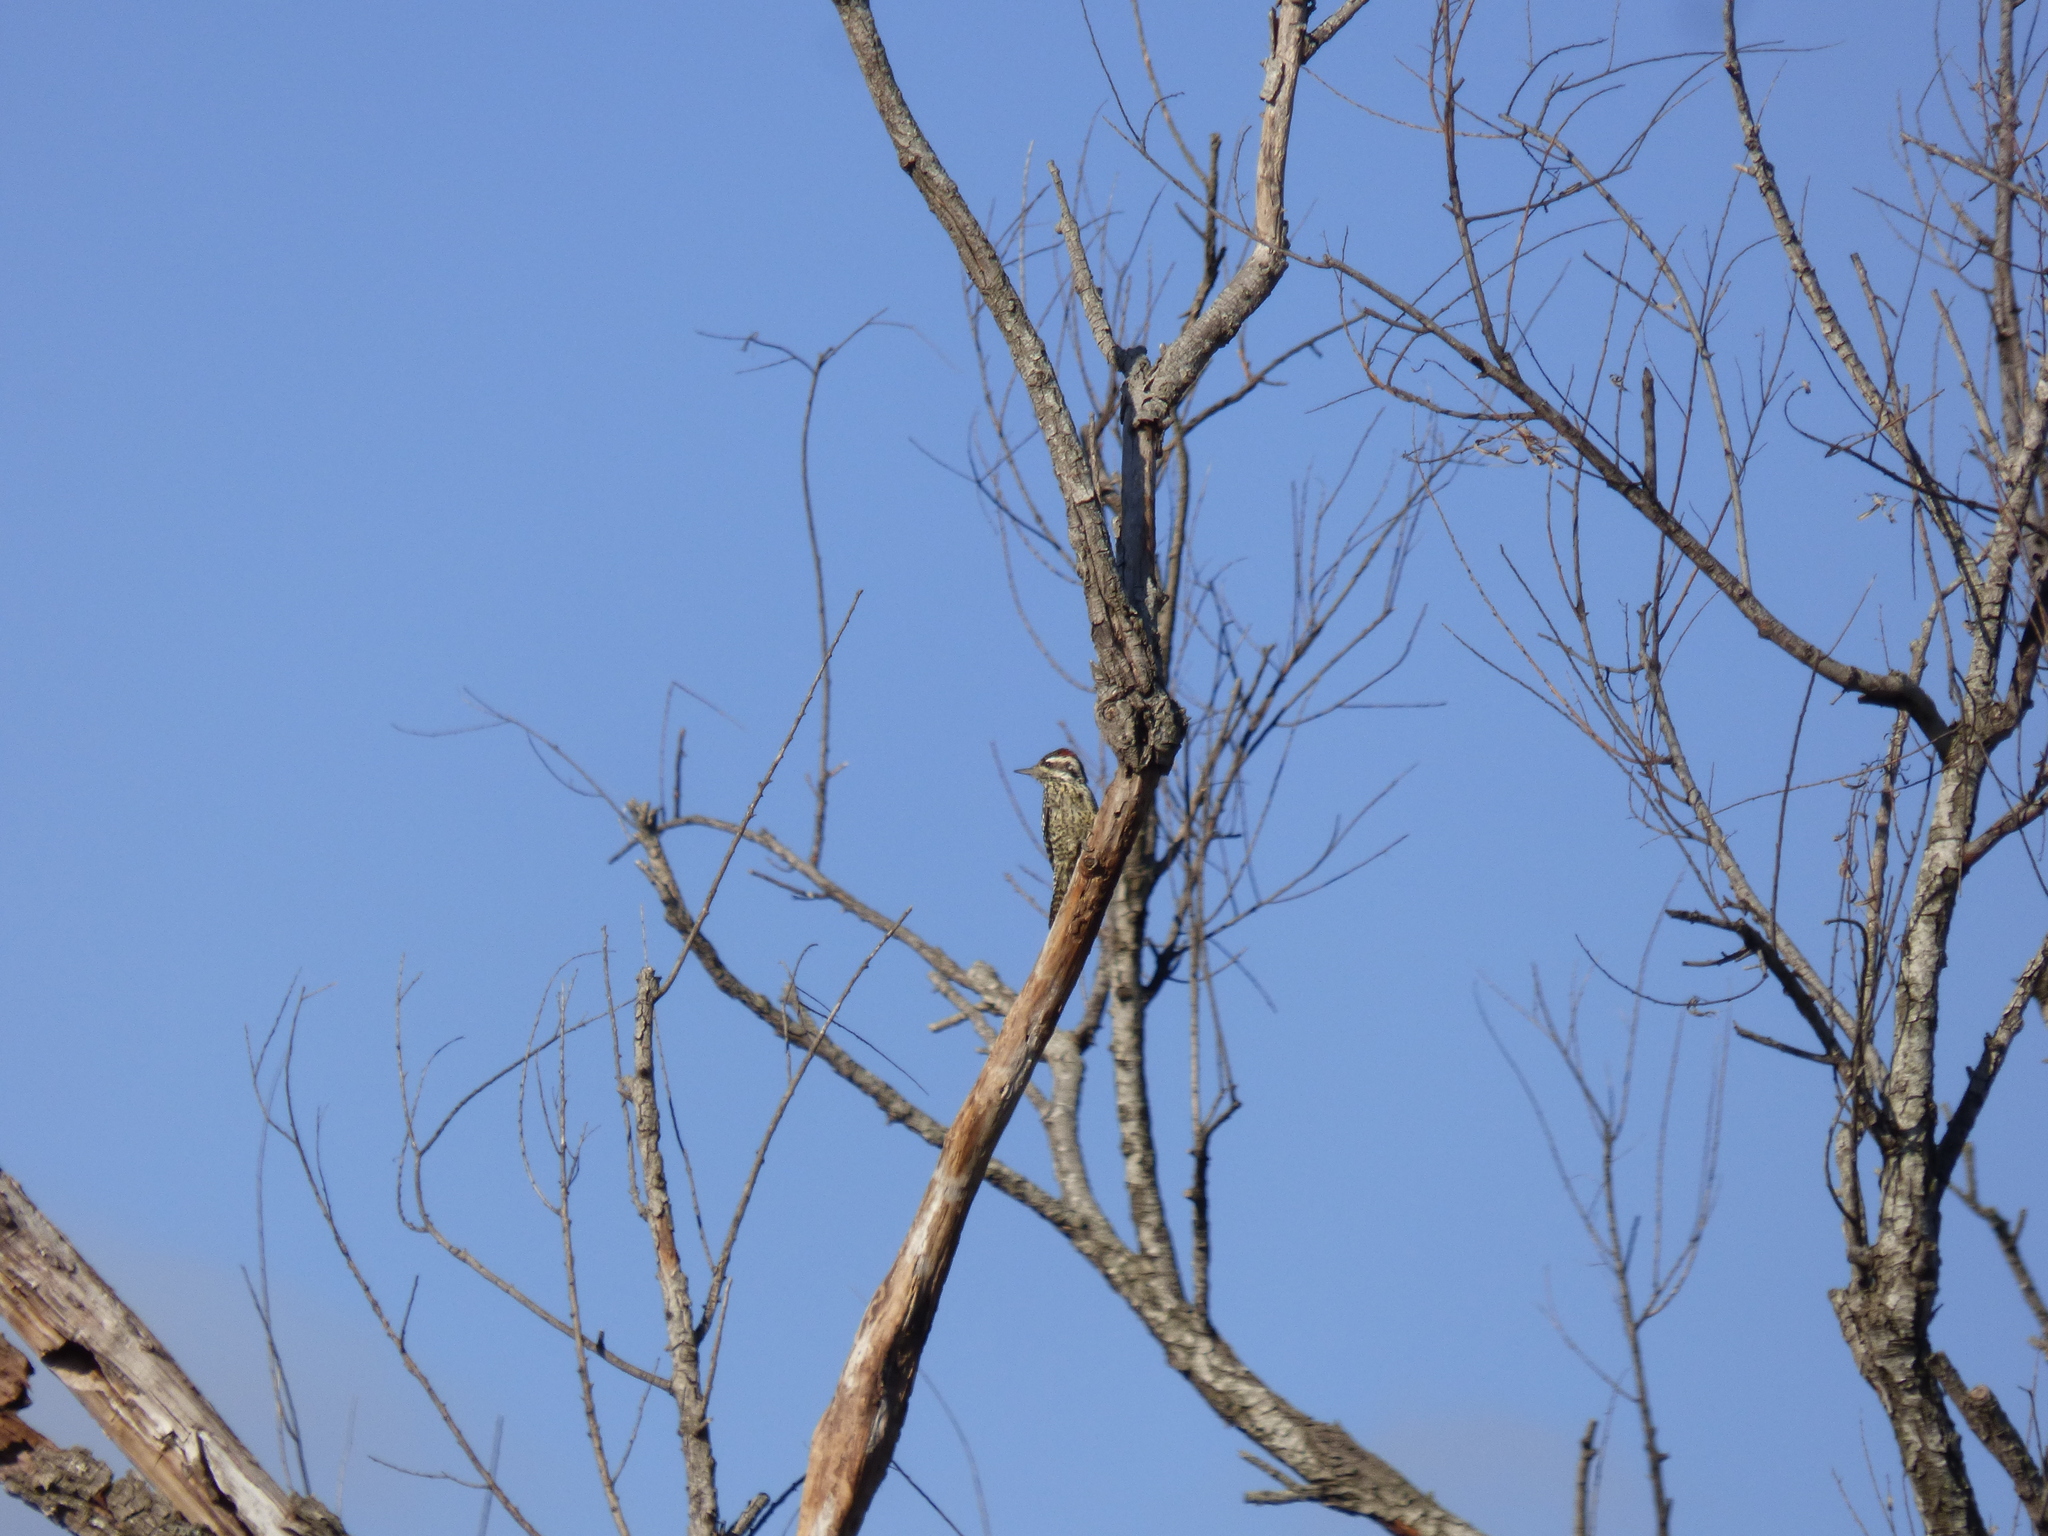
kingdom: Animalia
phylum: Chordata
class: Aves
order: Piciformes
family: Picidae
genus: Veniliornis
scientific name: Veniliornis mixtus
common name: Checkered woodpecker
